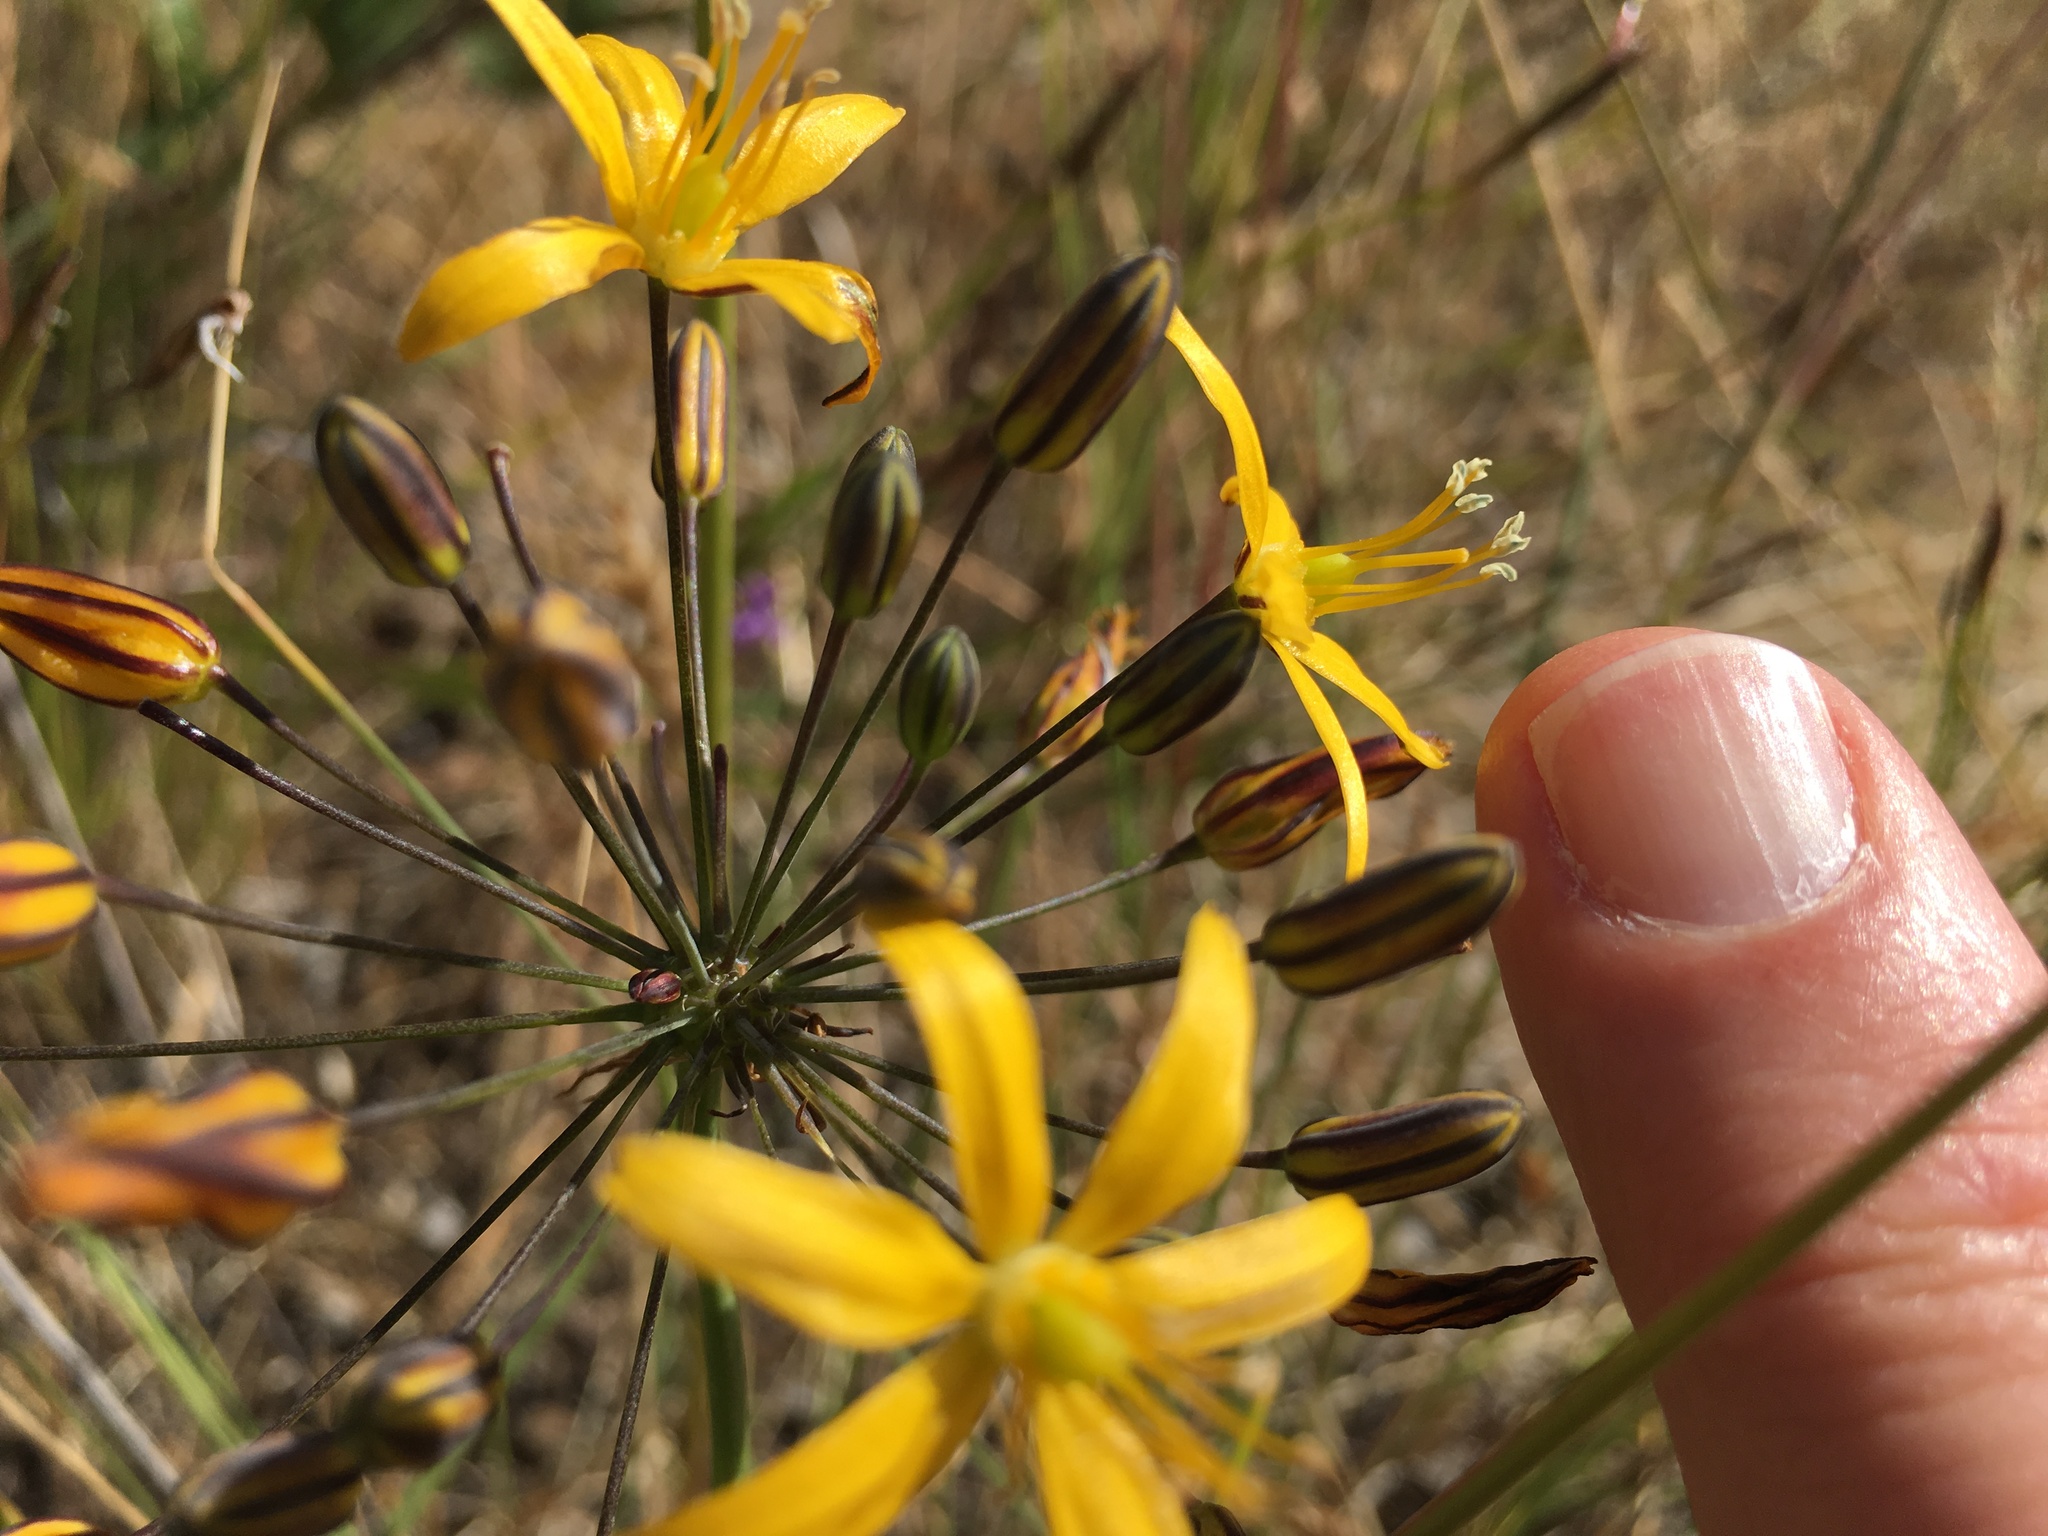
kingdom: Plantae
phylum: Tracheophyta
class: Liliopsida
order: Asparagales
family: Asparagaceae
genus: Bloomeria
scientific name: Bloomeria crocea
